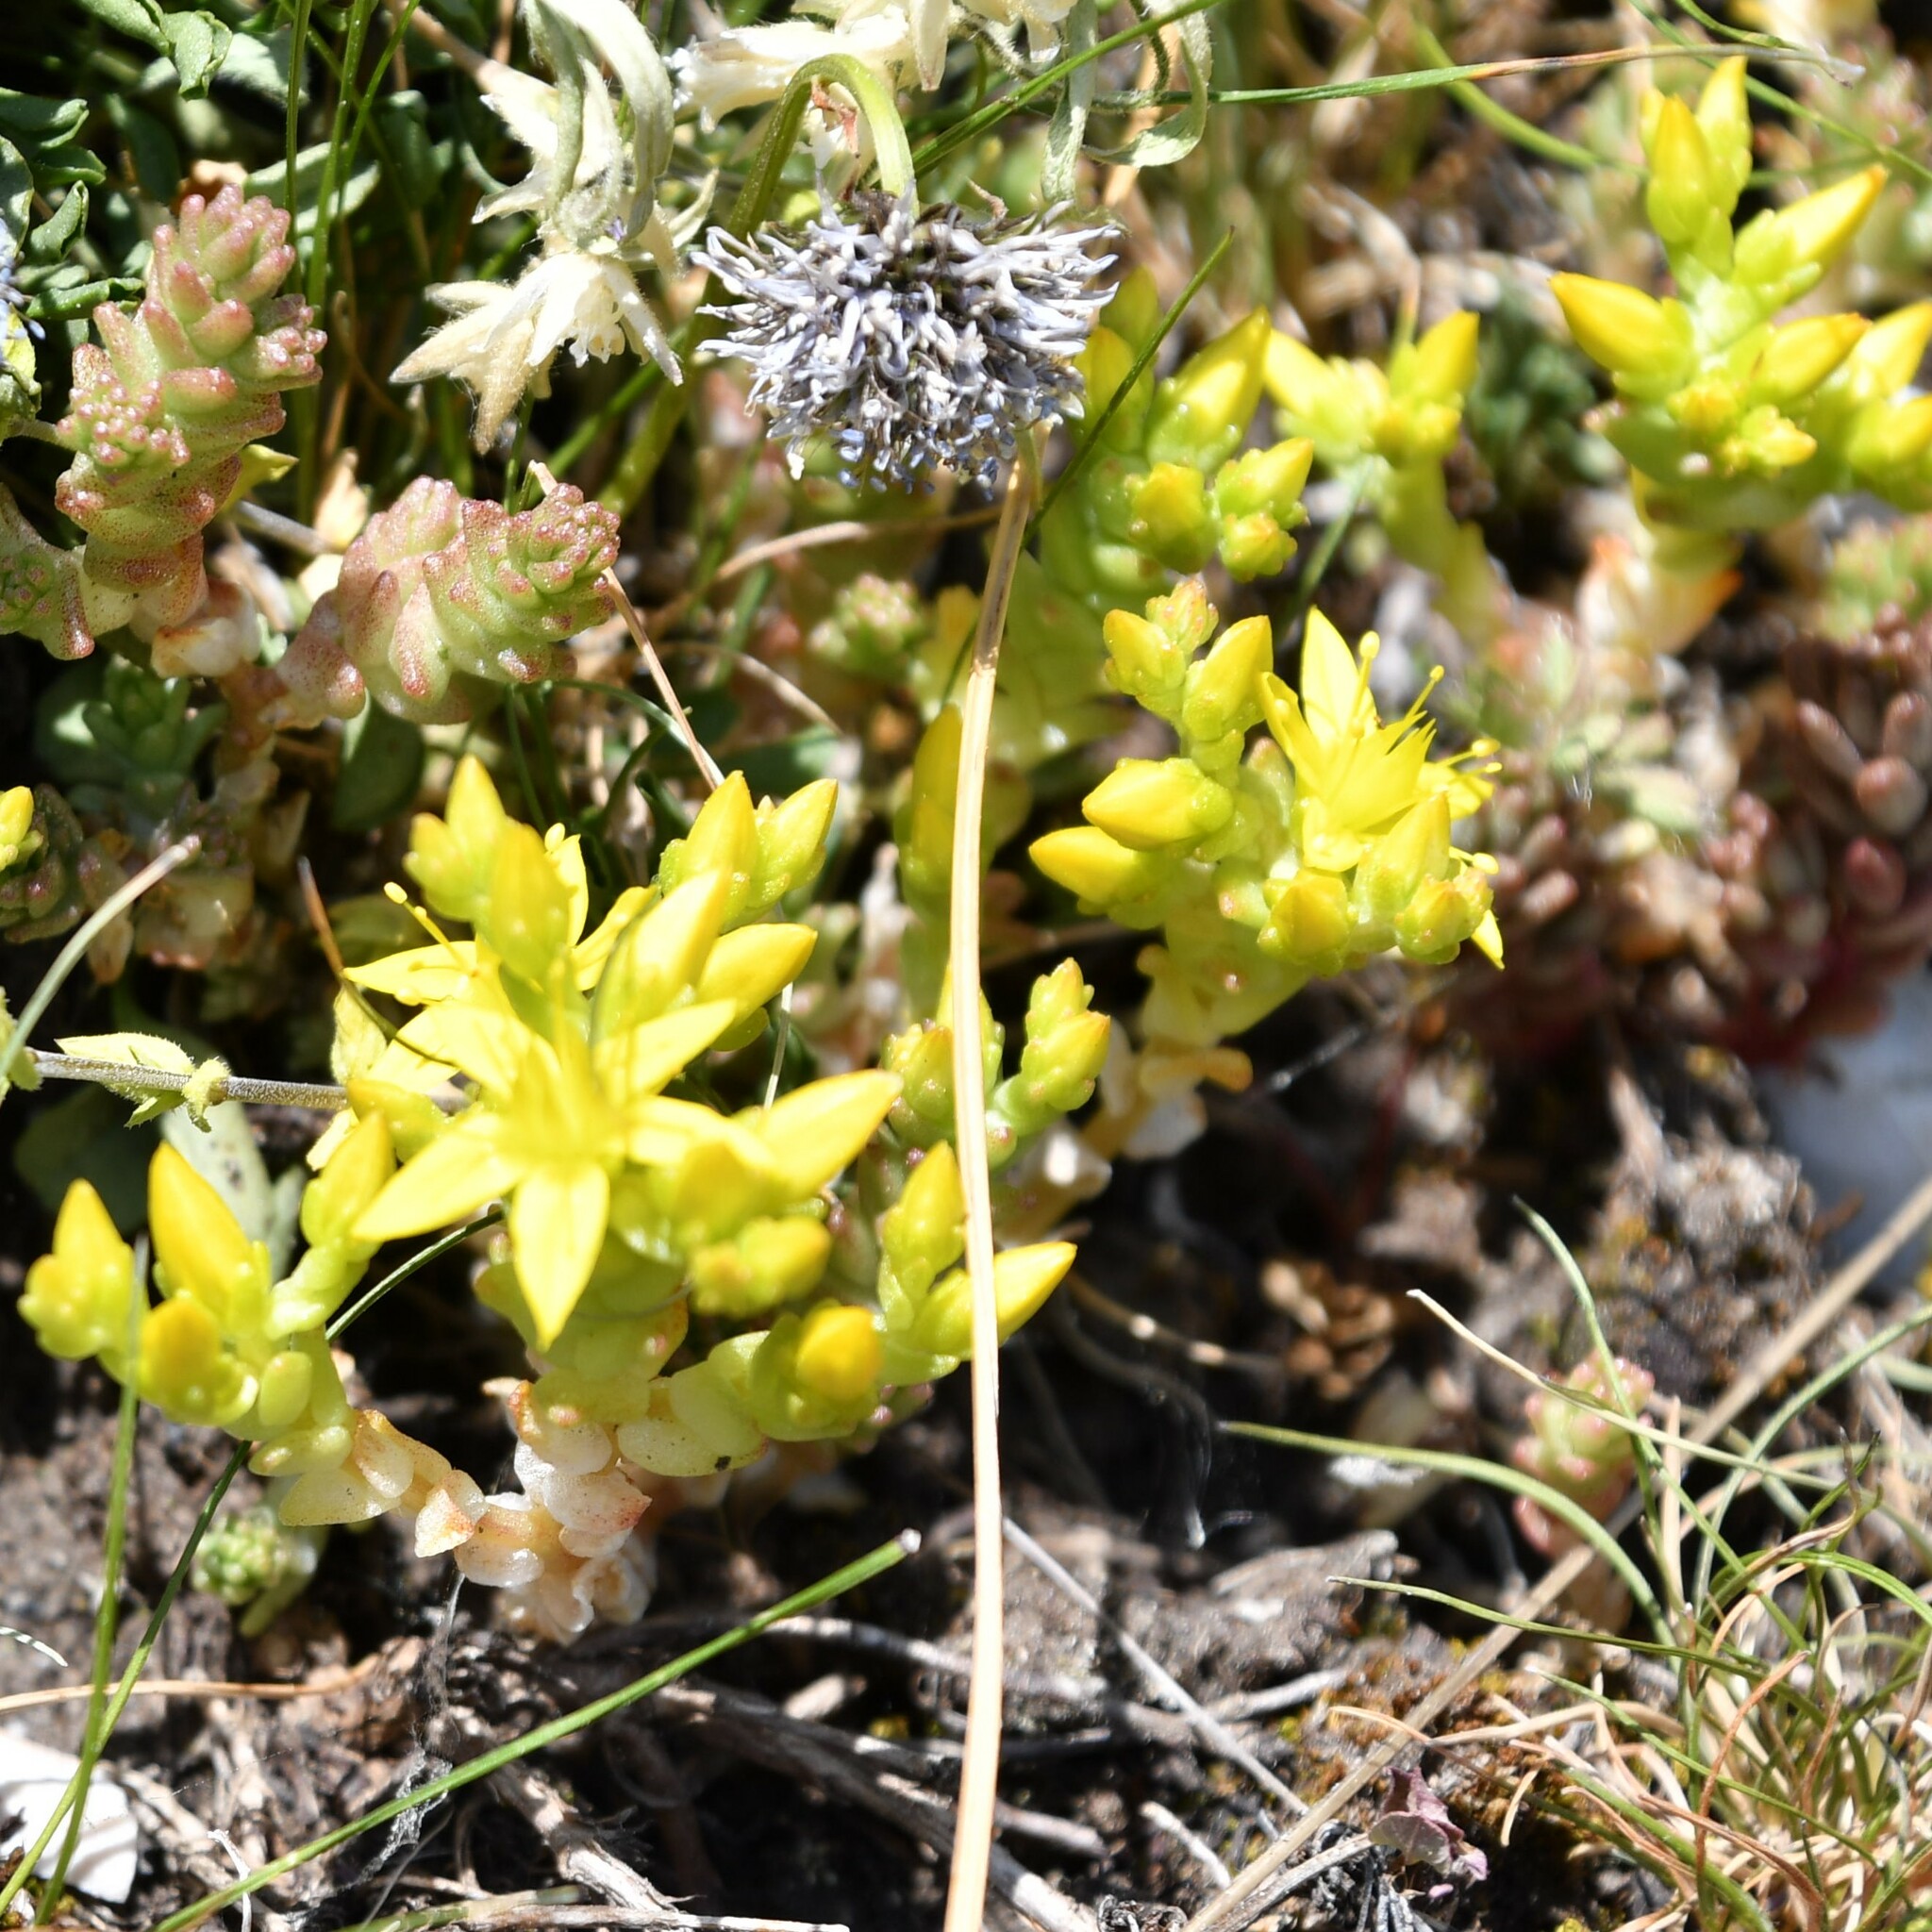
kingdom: Plantae
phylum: Tracheophyta
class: Magnoliopsida
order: Saxifragales
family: Crassulaceae
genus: Sedum
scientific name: Sedum acre
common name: Biting stonecrop
